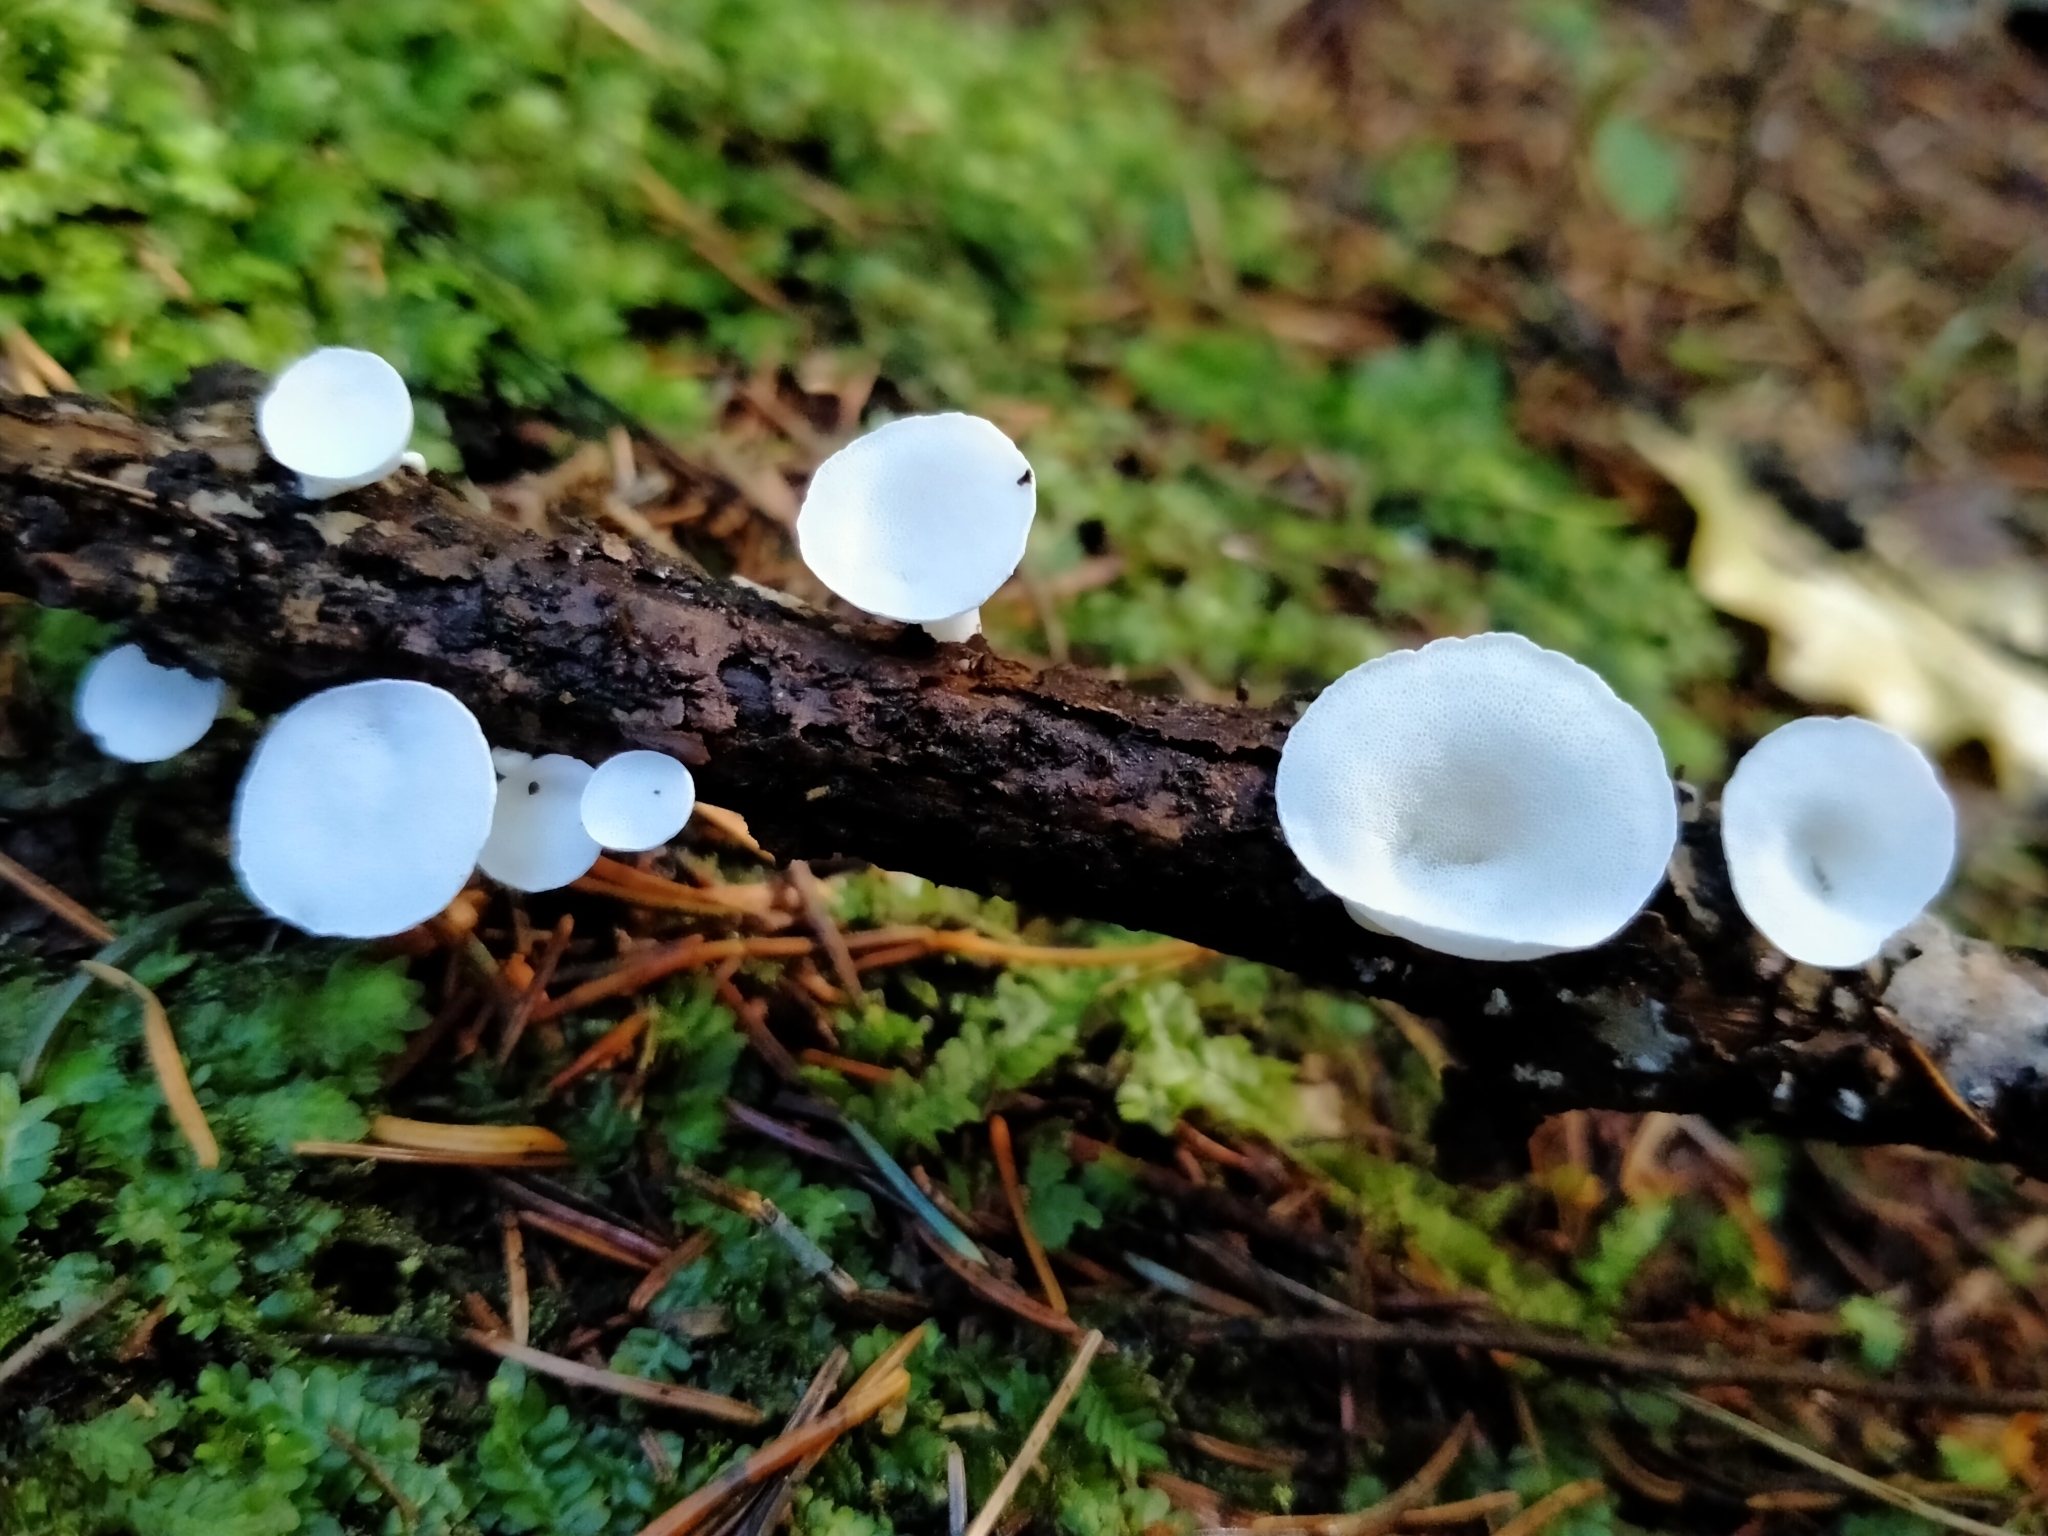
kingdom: Fungi
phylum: Basidiomycota
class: Agaricomycetes
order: Polyporales
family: Irpicaceae
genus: Gloeoporus
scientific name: Gloeoporus phlebophorus
